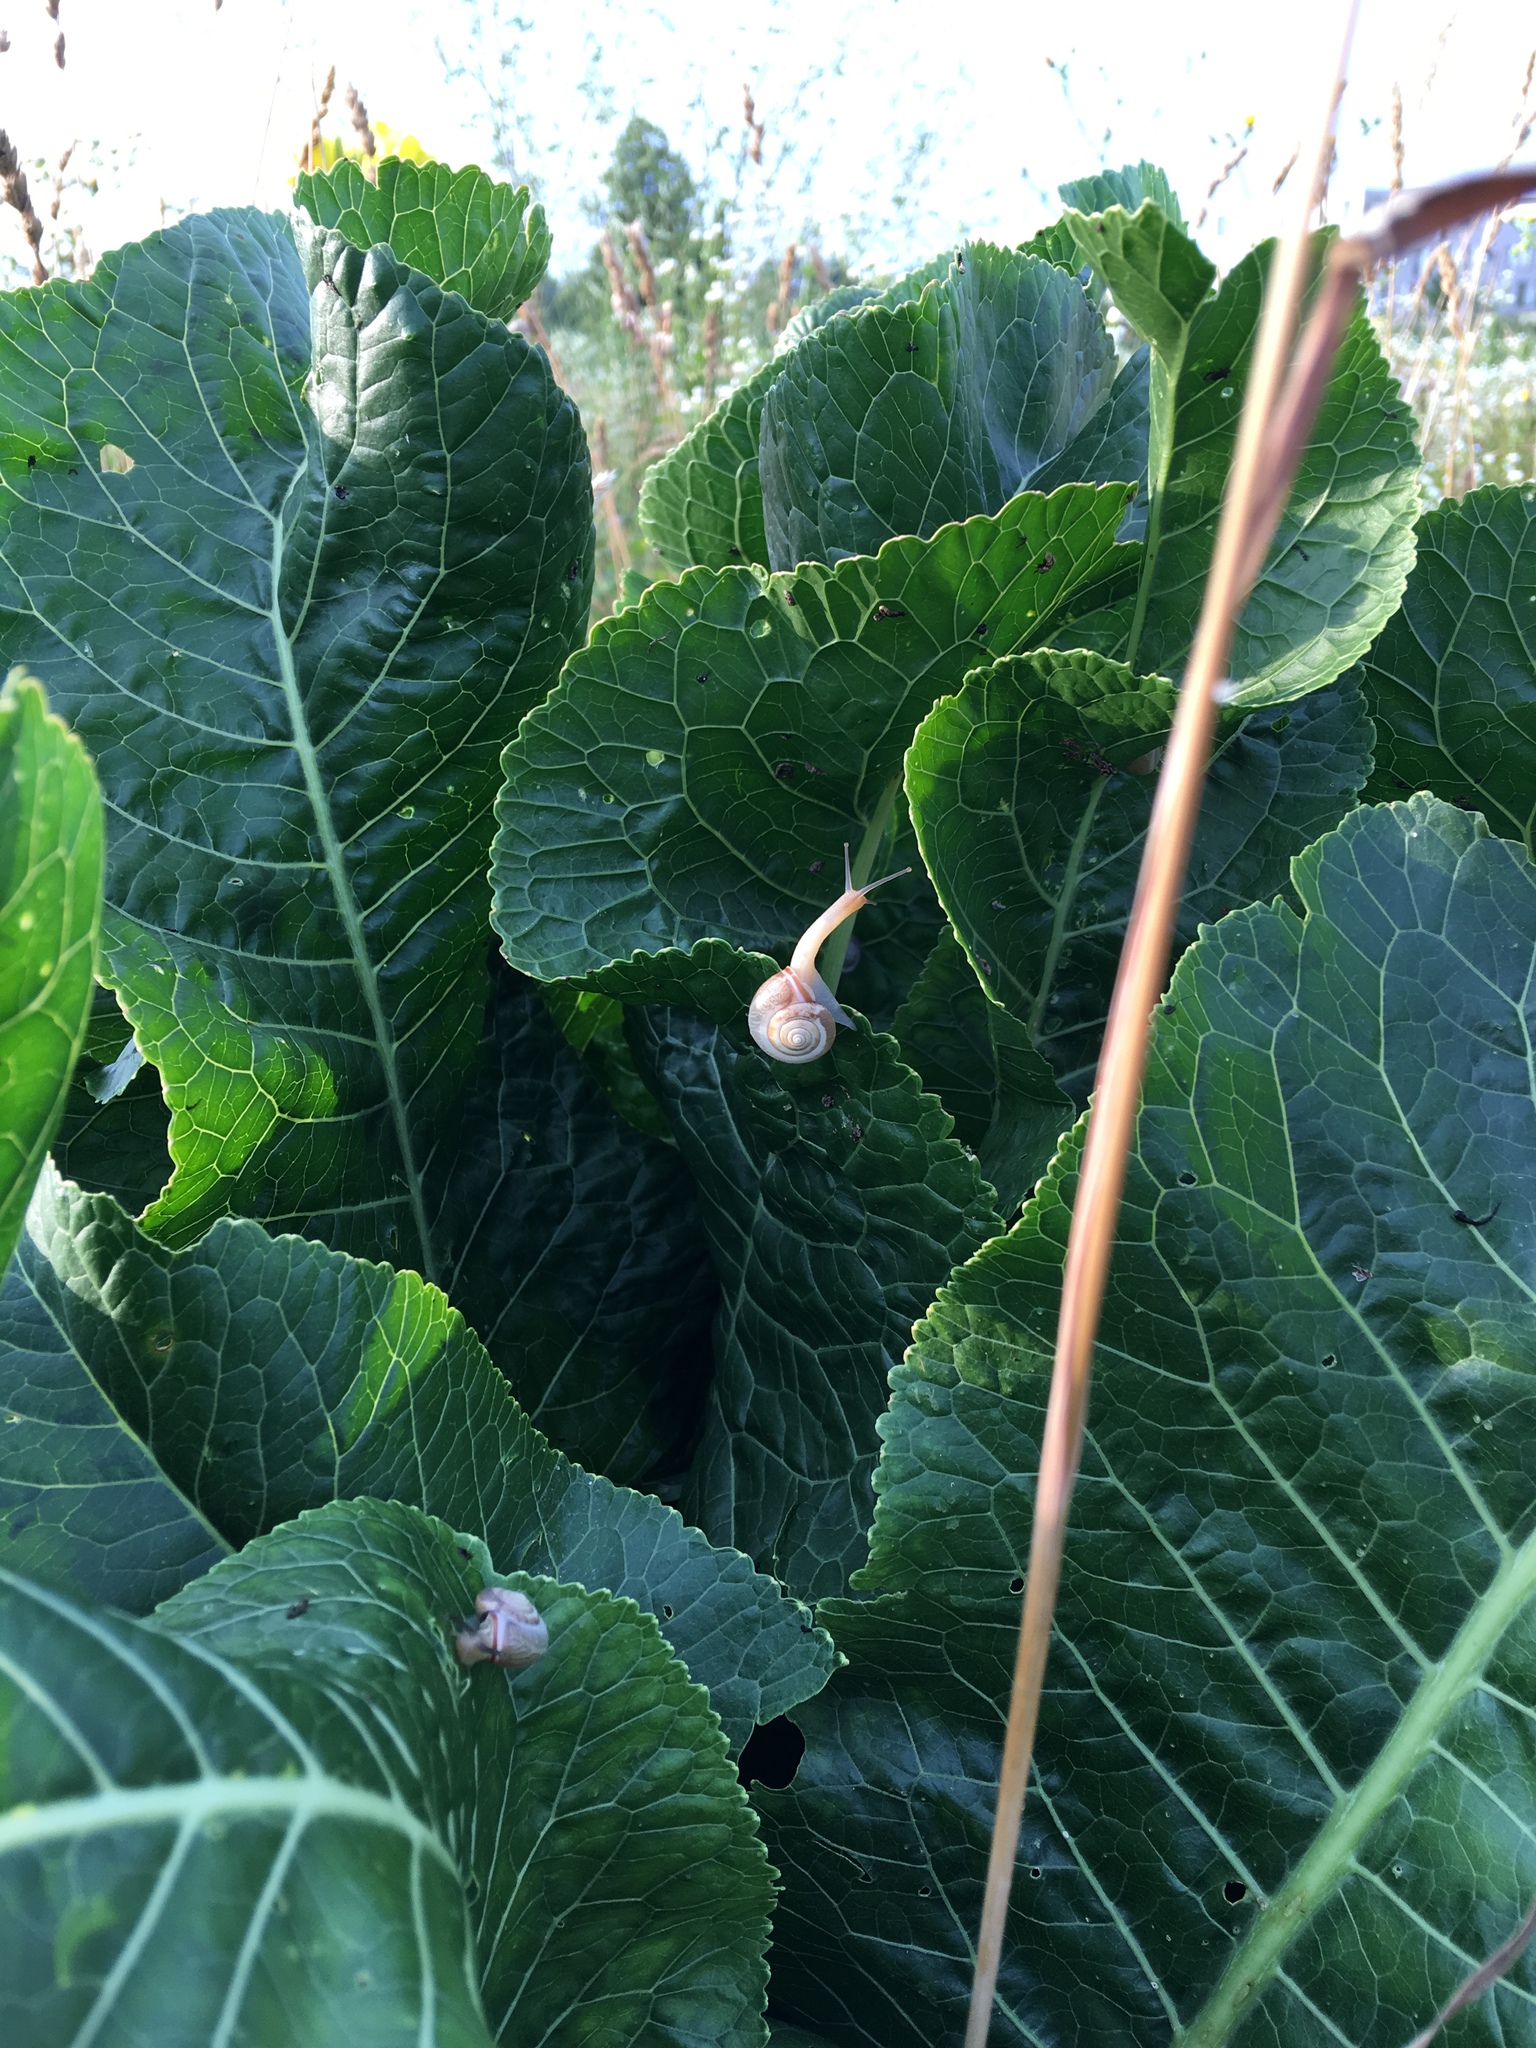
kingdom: Plantae
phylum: Tracheophyta
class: Magnoliopsida
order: Brassicales
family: Brassicaceae
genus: Armoracia
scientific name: Armoracia rusticana
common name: Horseradish
